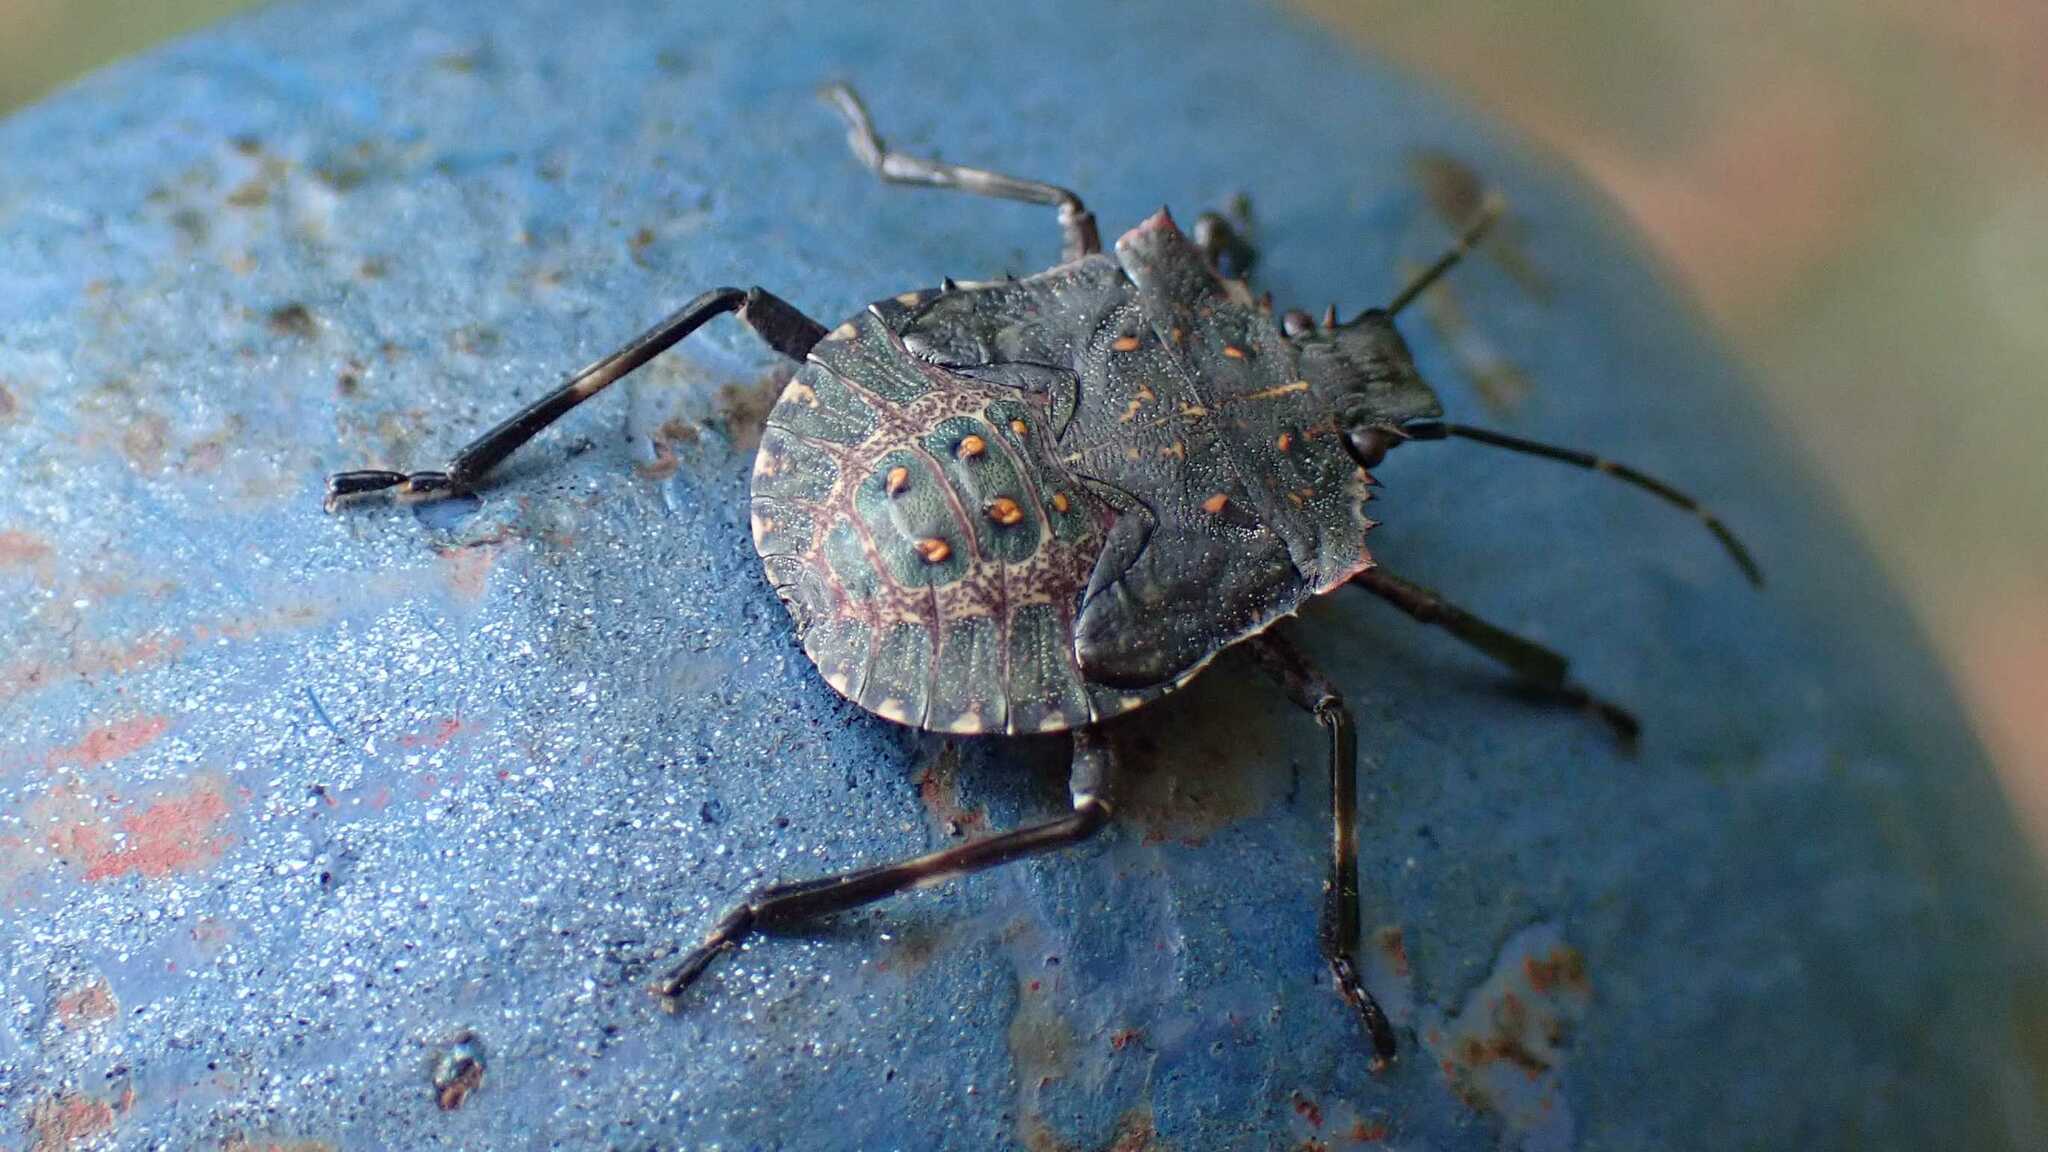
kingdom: Animalia
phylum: Arthropoda
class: Insecta
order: Hemiptera
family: Pentatomidae
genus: Halyomorpha
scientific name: Halyomorpha halys
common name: Brown marmorated stink bug
